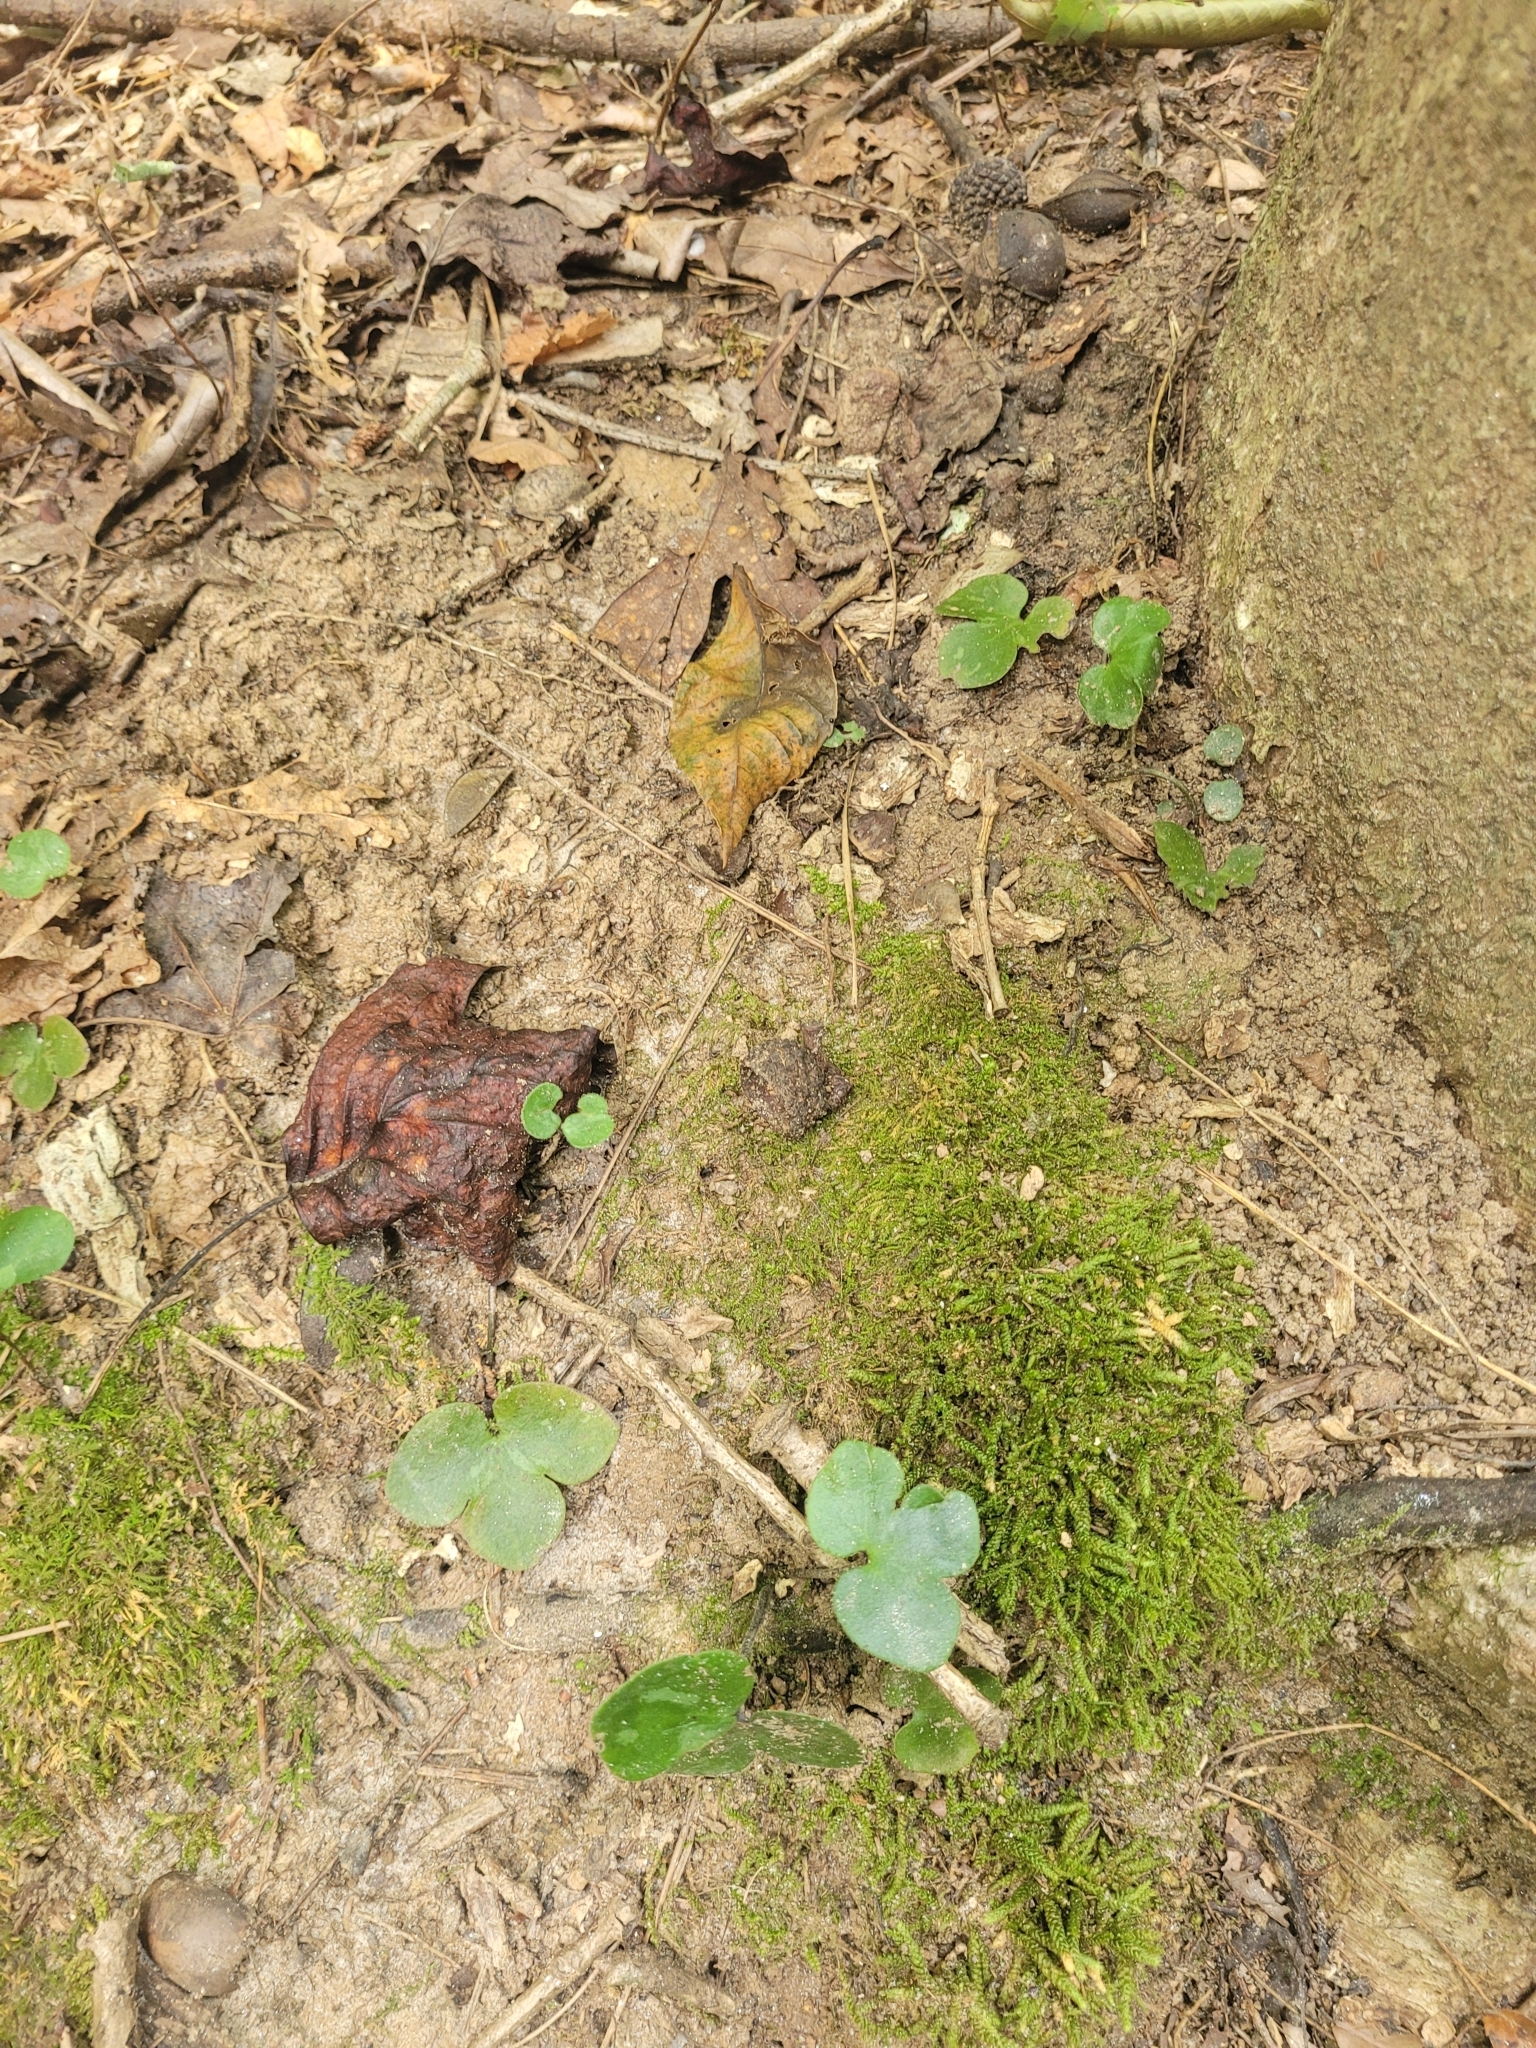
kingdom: Plantae
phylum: Tracheophyta
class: Magnoliopsida
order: Ranunculales
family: Ranunculaceae
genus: Hepatica
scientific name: Hepatica americana
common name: American hepatica
